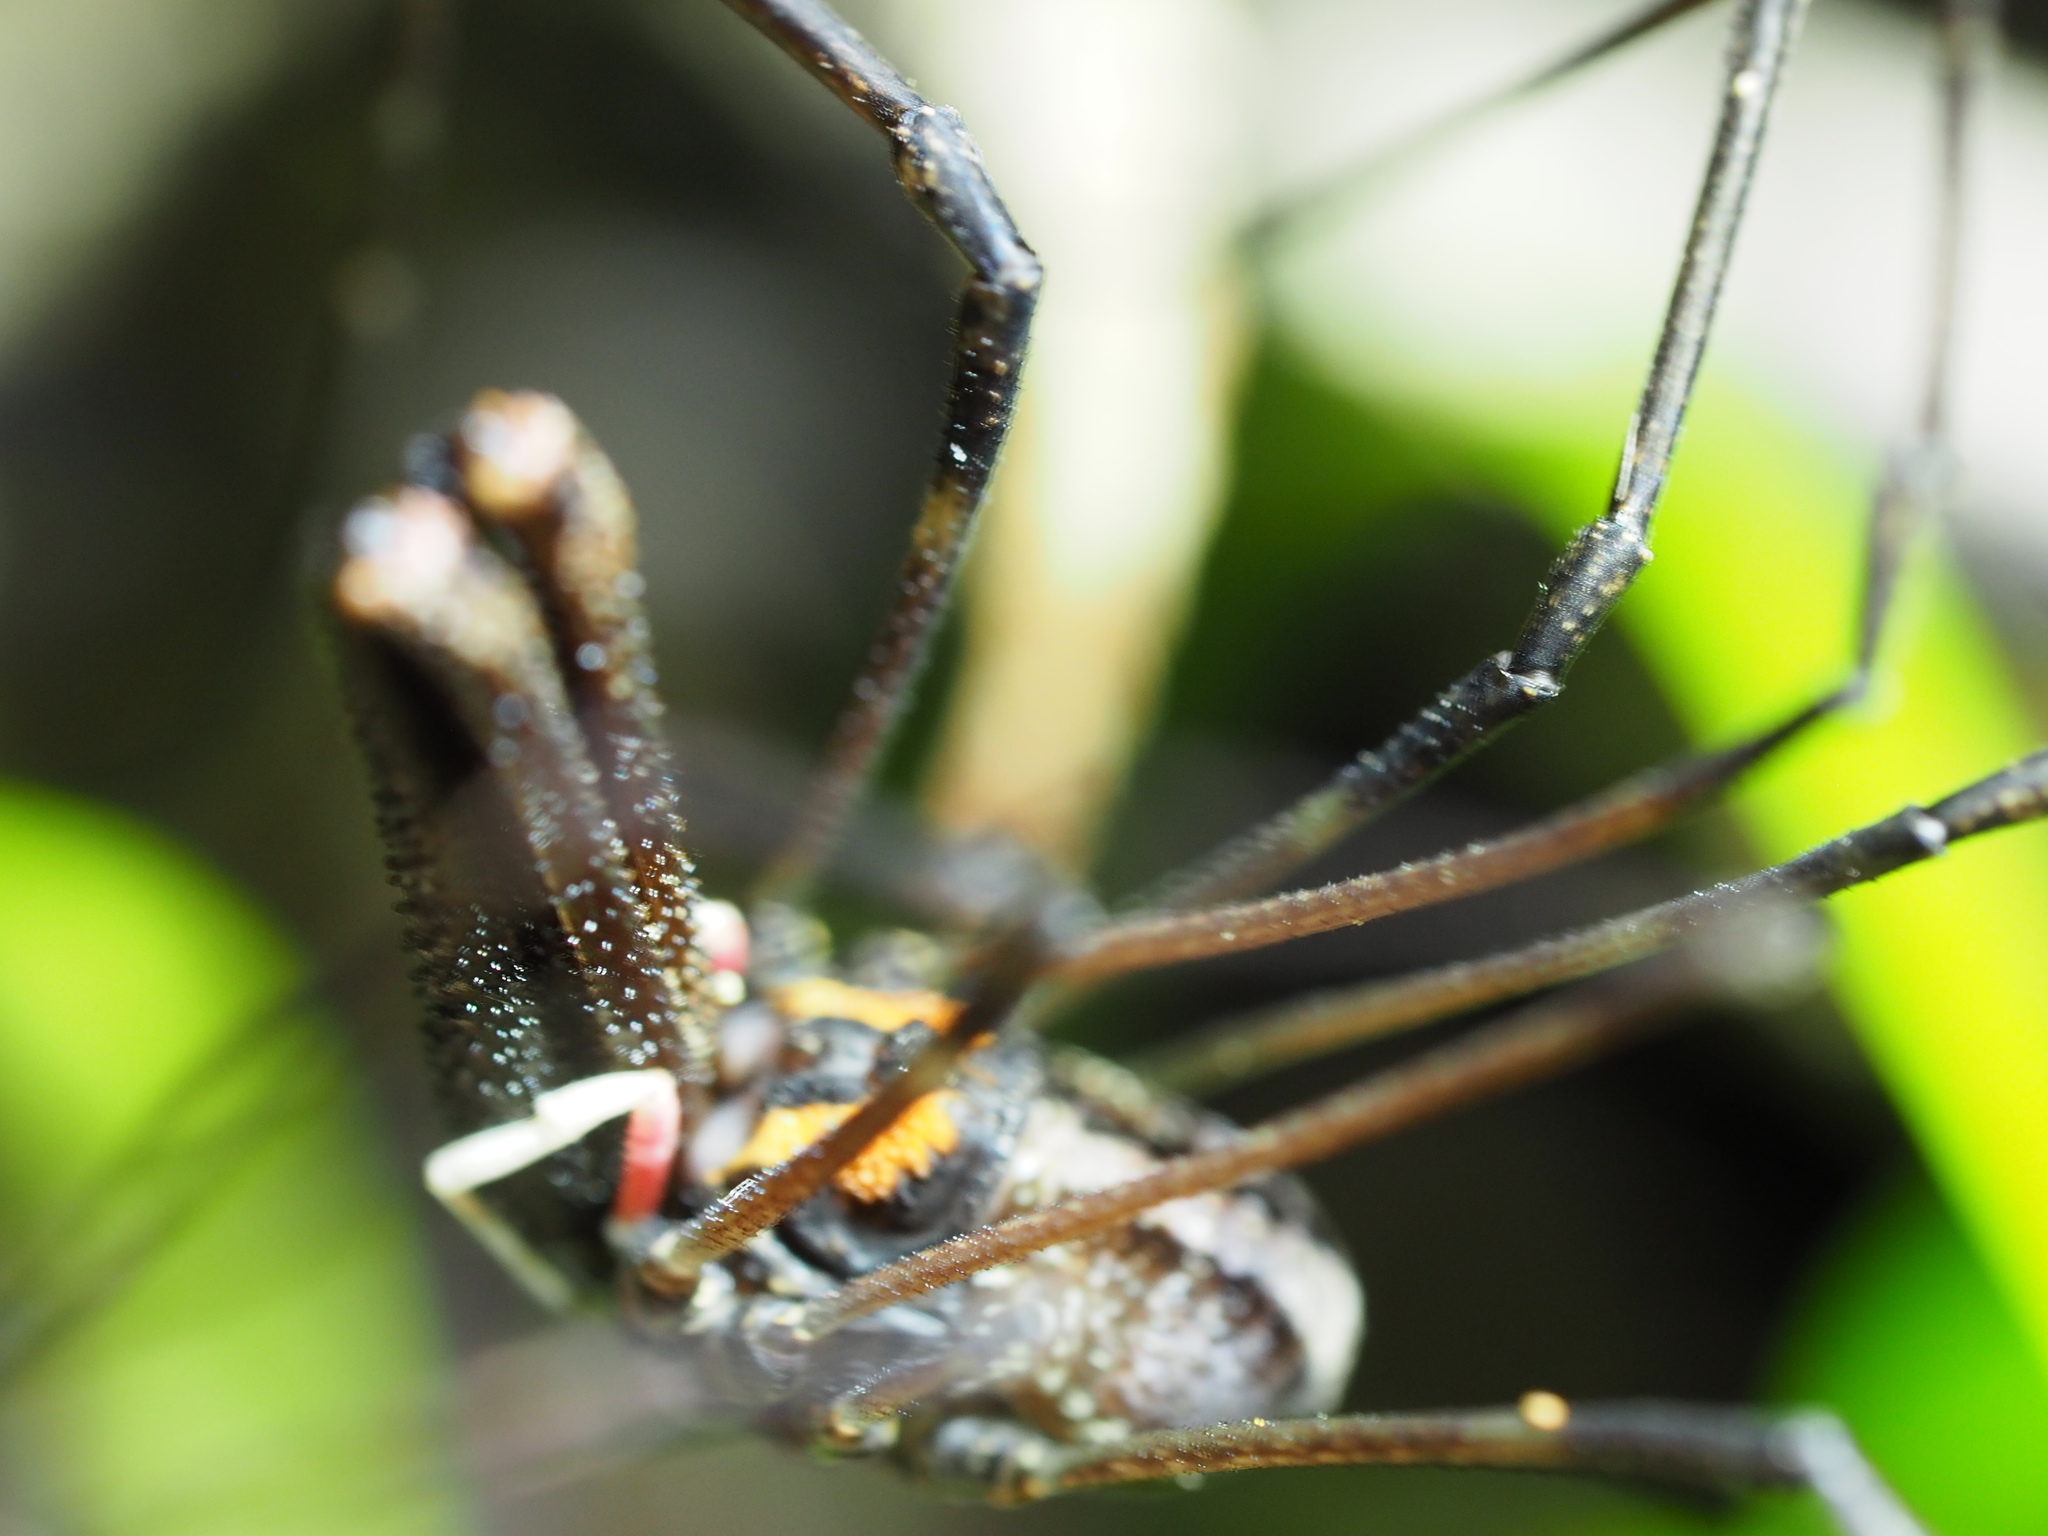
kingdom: Animalia
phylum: Arthropoda
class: Arachnida
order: Opiliones
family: Neopilionidae
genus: Forsteropsalis
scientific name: Forsteropsalis inconstans
